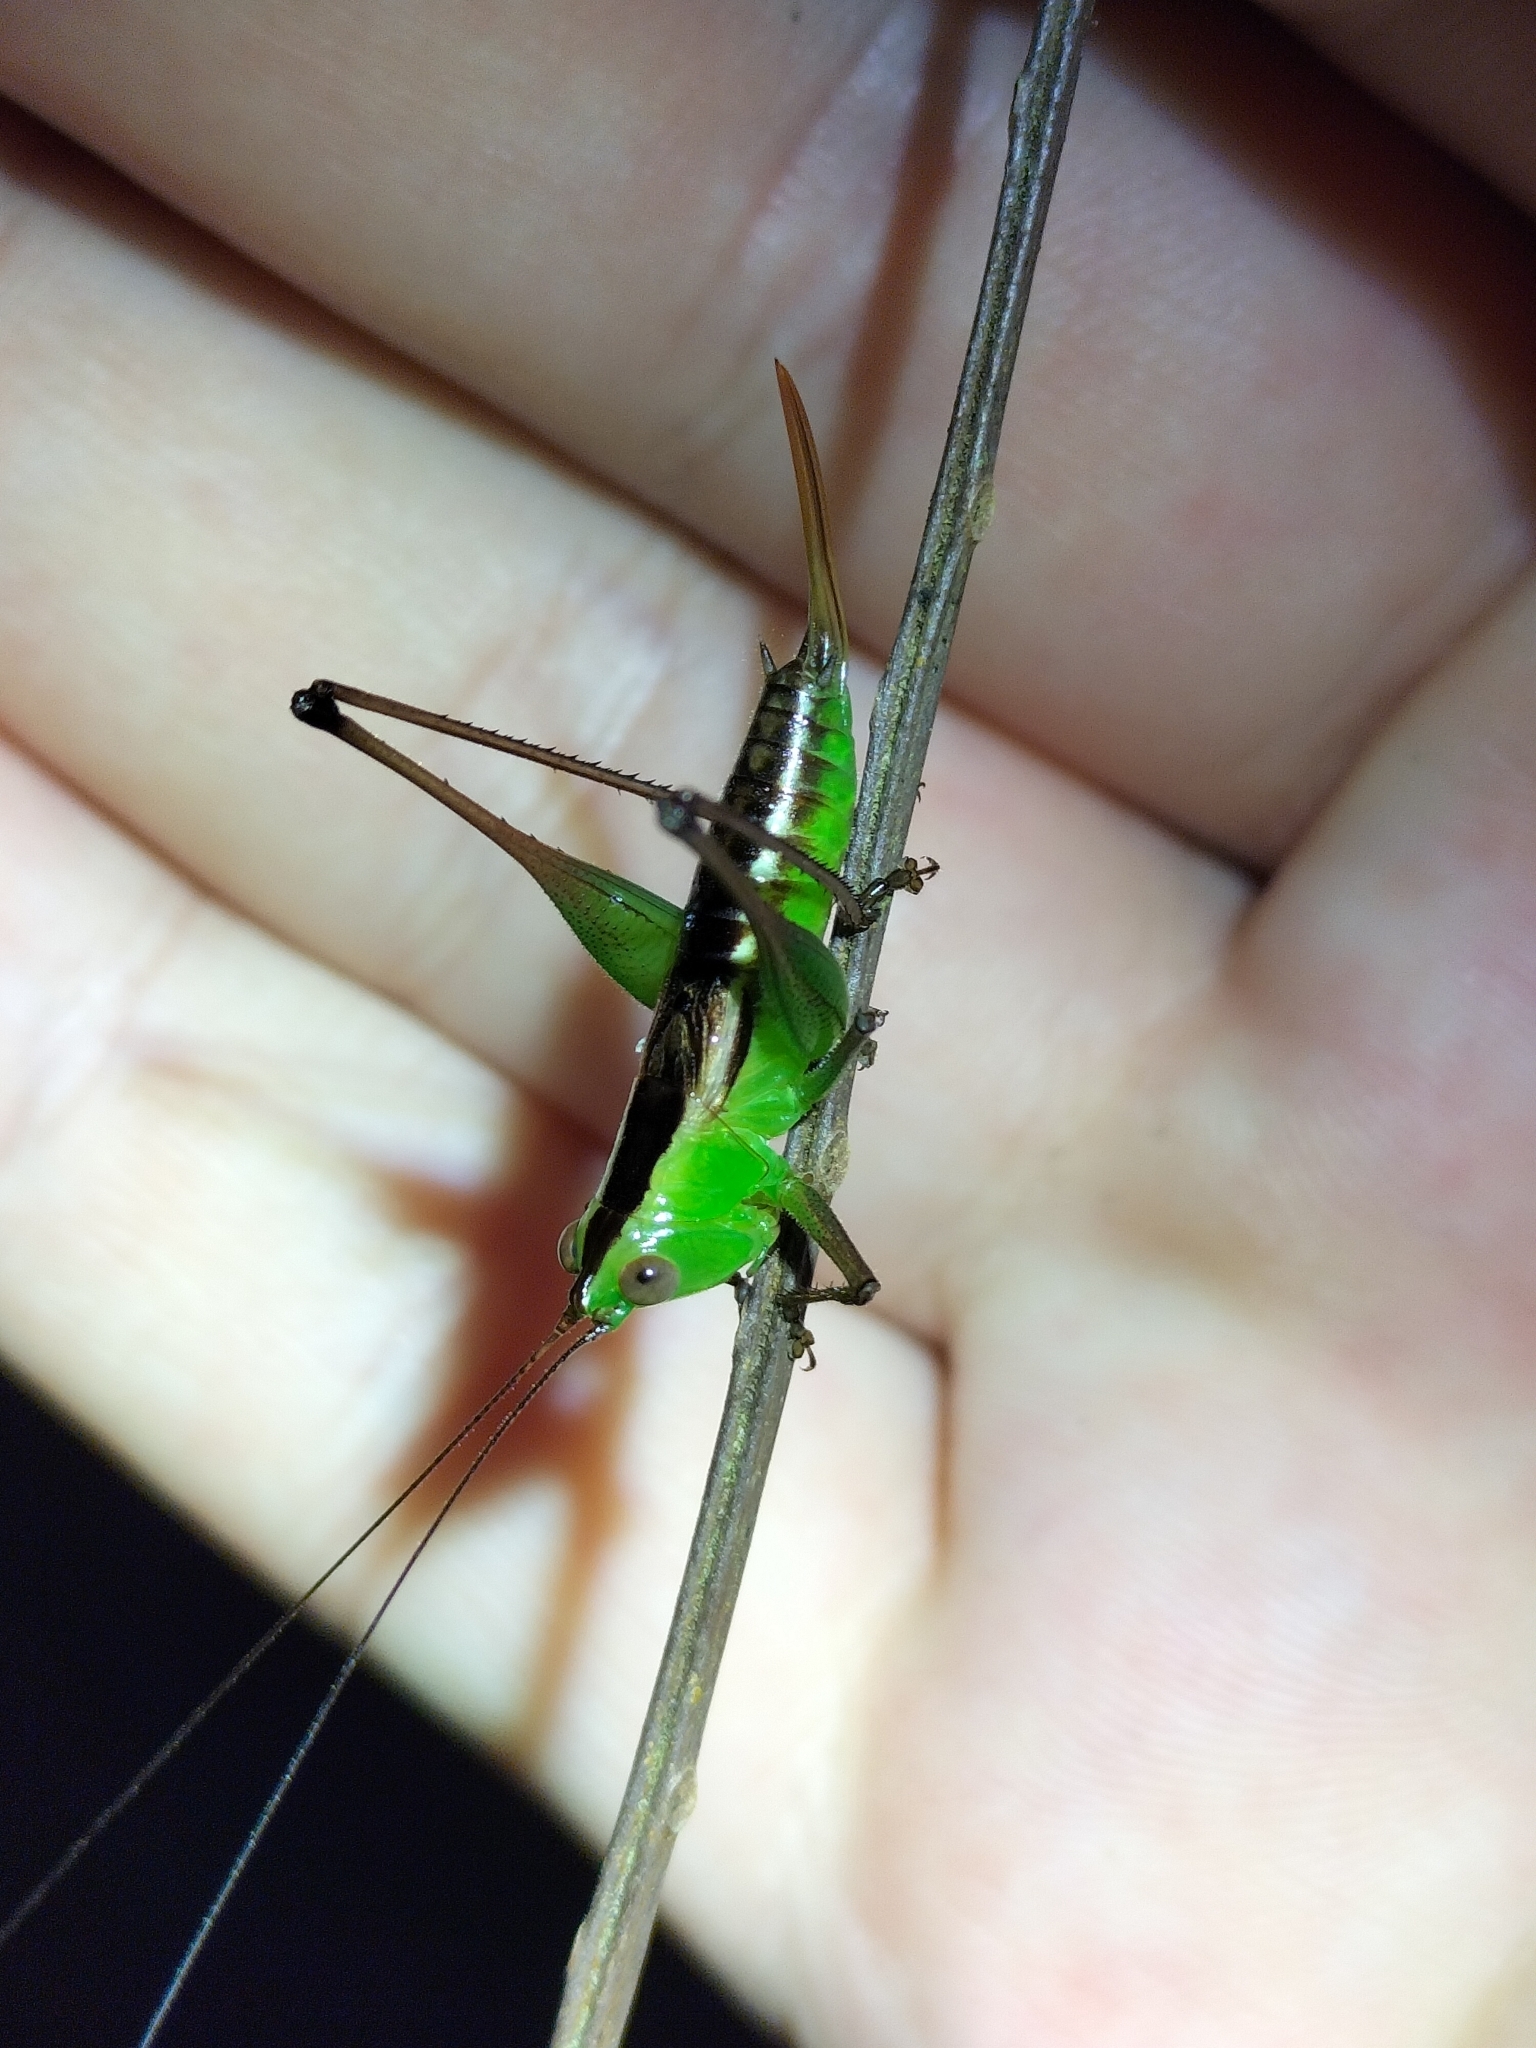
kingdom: Animalia
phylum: Arthropoda
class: Insecta
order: Orthoptera
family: Tettigoniidae
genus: Conocephalus
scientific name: Conocephalus semivittatus
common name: Blackish meadow katydid
